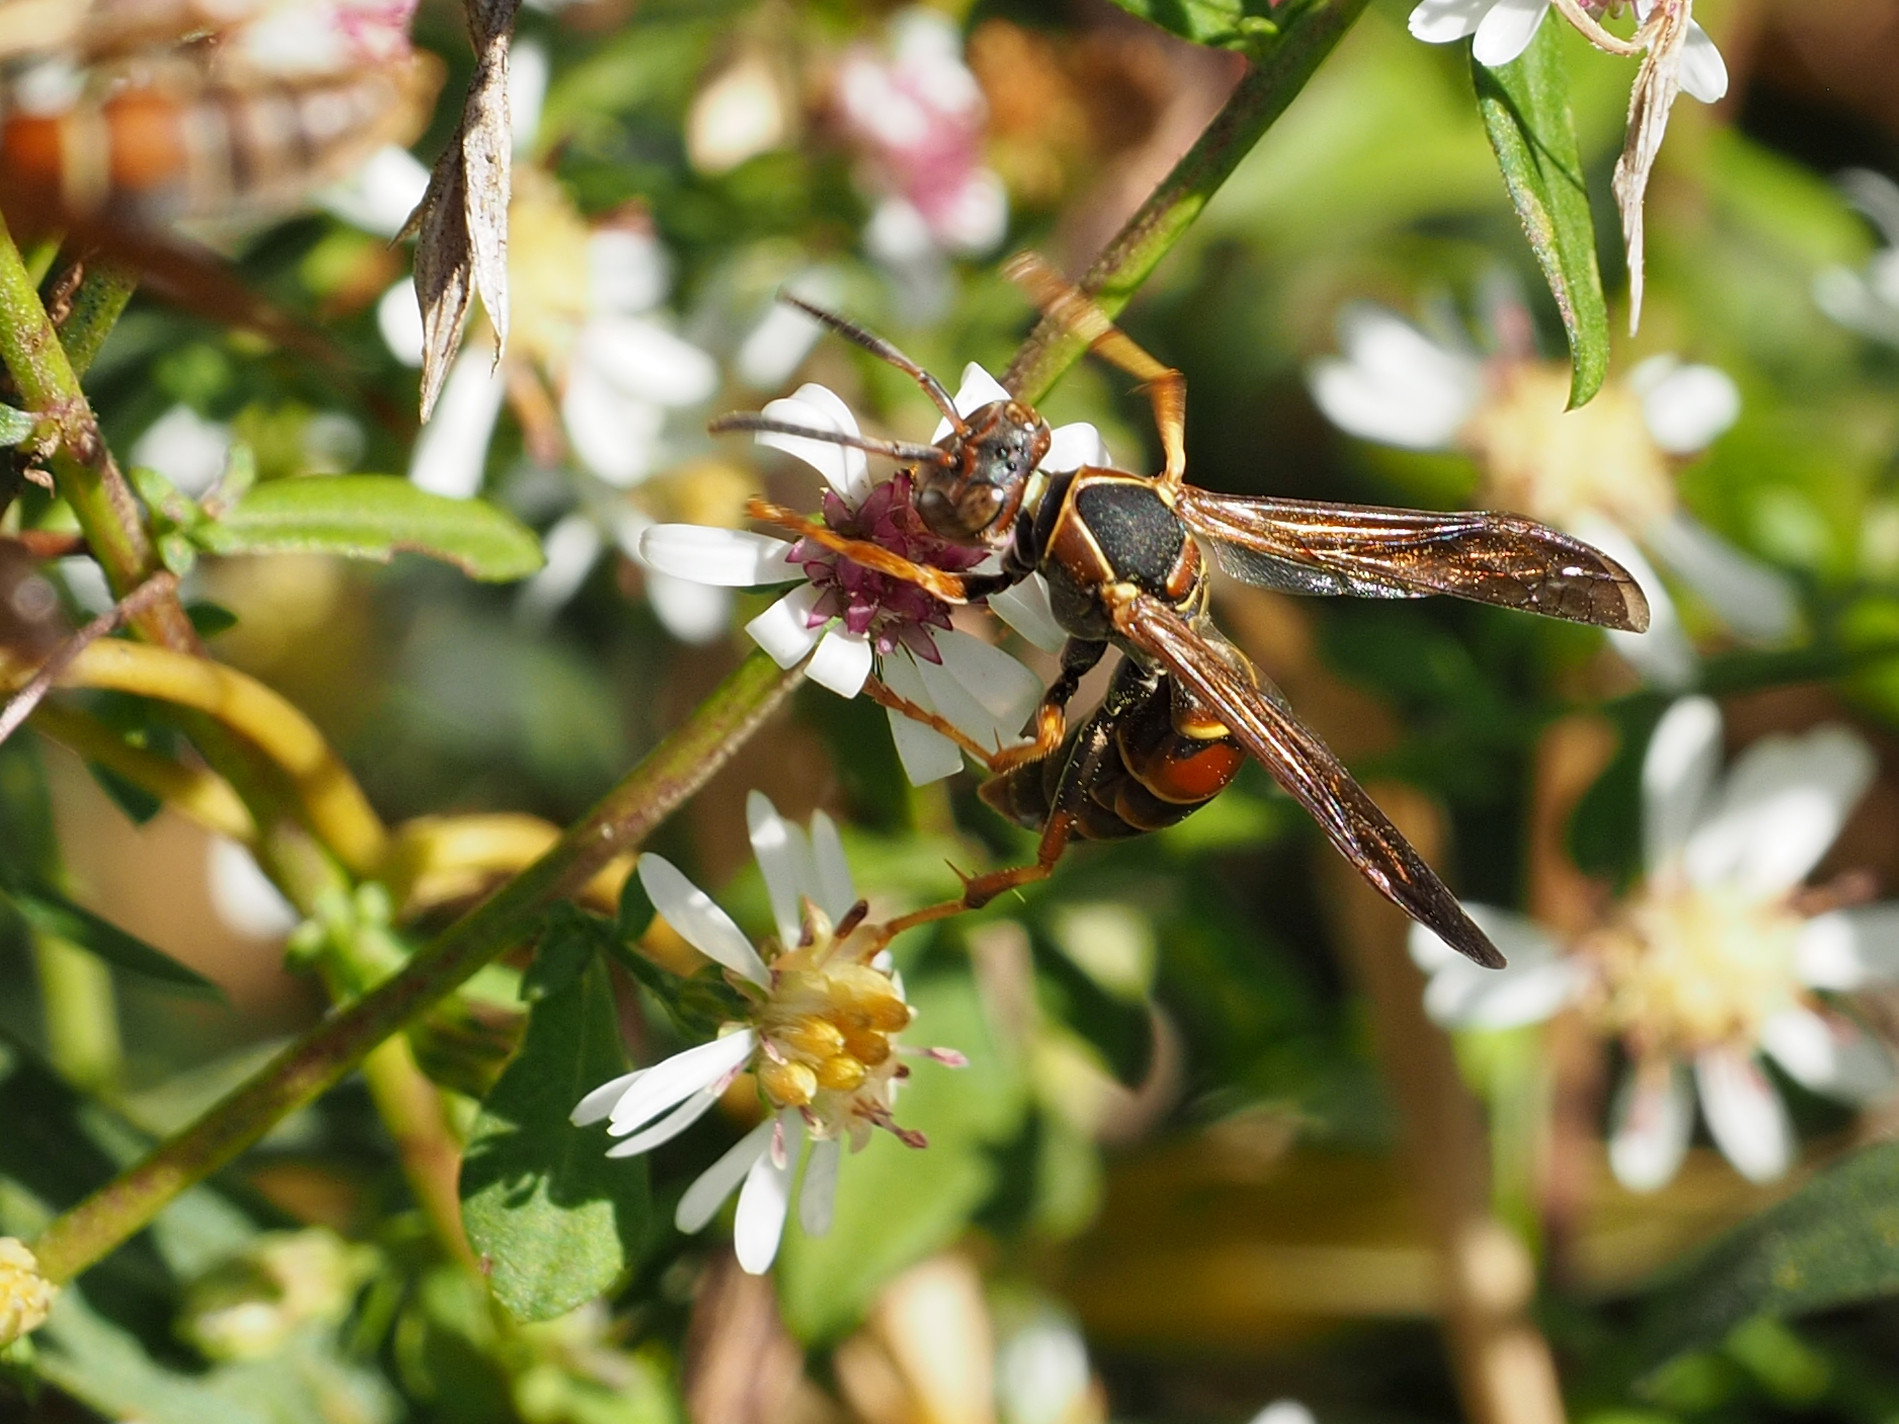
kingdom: Animalia
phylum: Arthropoda
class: Insecta
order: Hymenoptera
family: Eumenidae
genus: Polistes
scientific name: Polistes fuscatus
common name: Dark paper wasp
